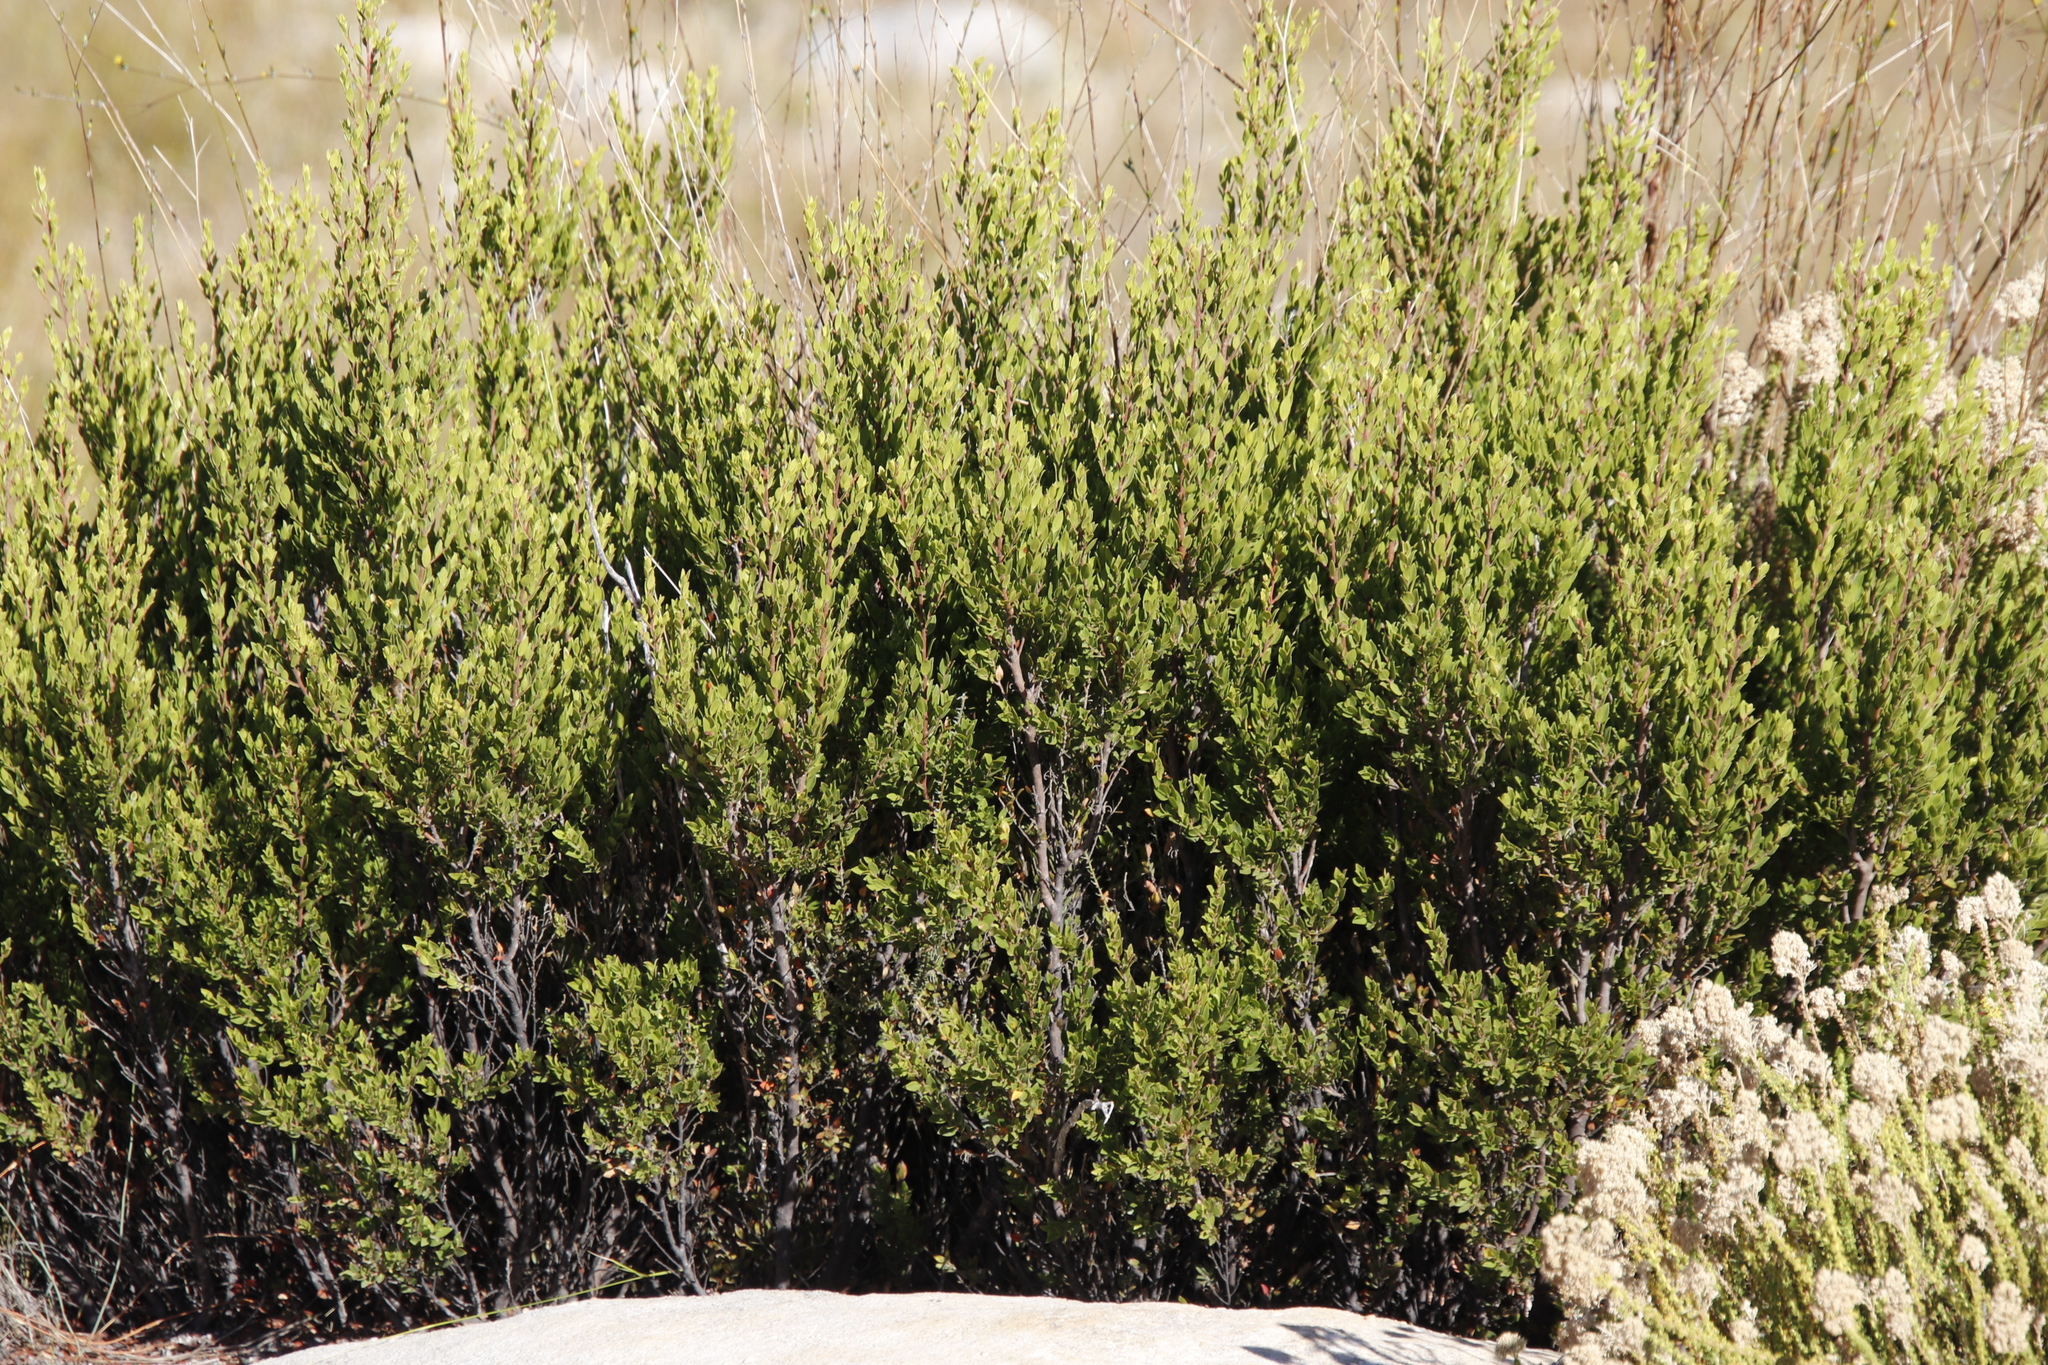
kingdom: Plantae
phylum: Tracheophyta
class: Magnoliopsida
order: Ericales
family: Ebenaceae
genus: Diospyros
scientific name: Diospyros glabra
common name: Fynbos star apple
